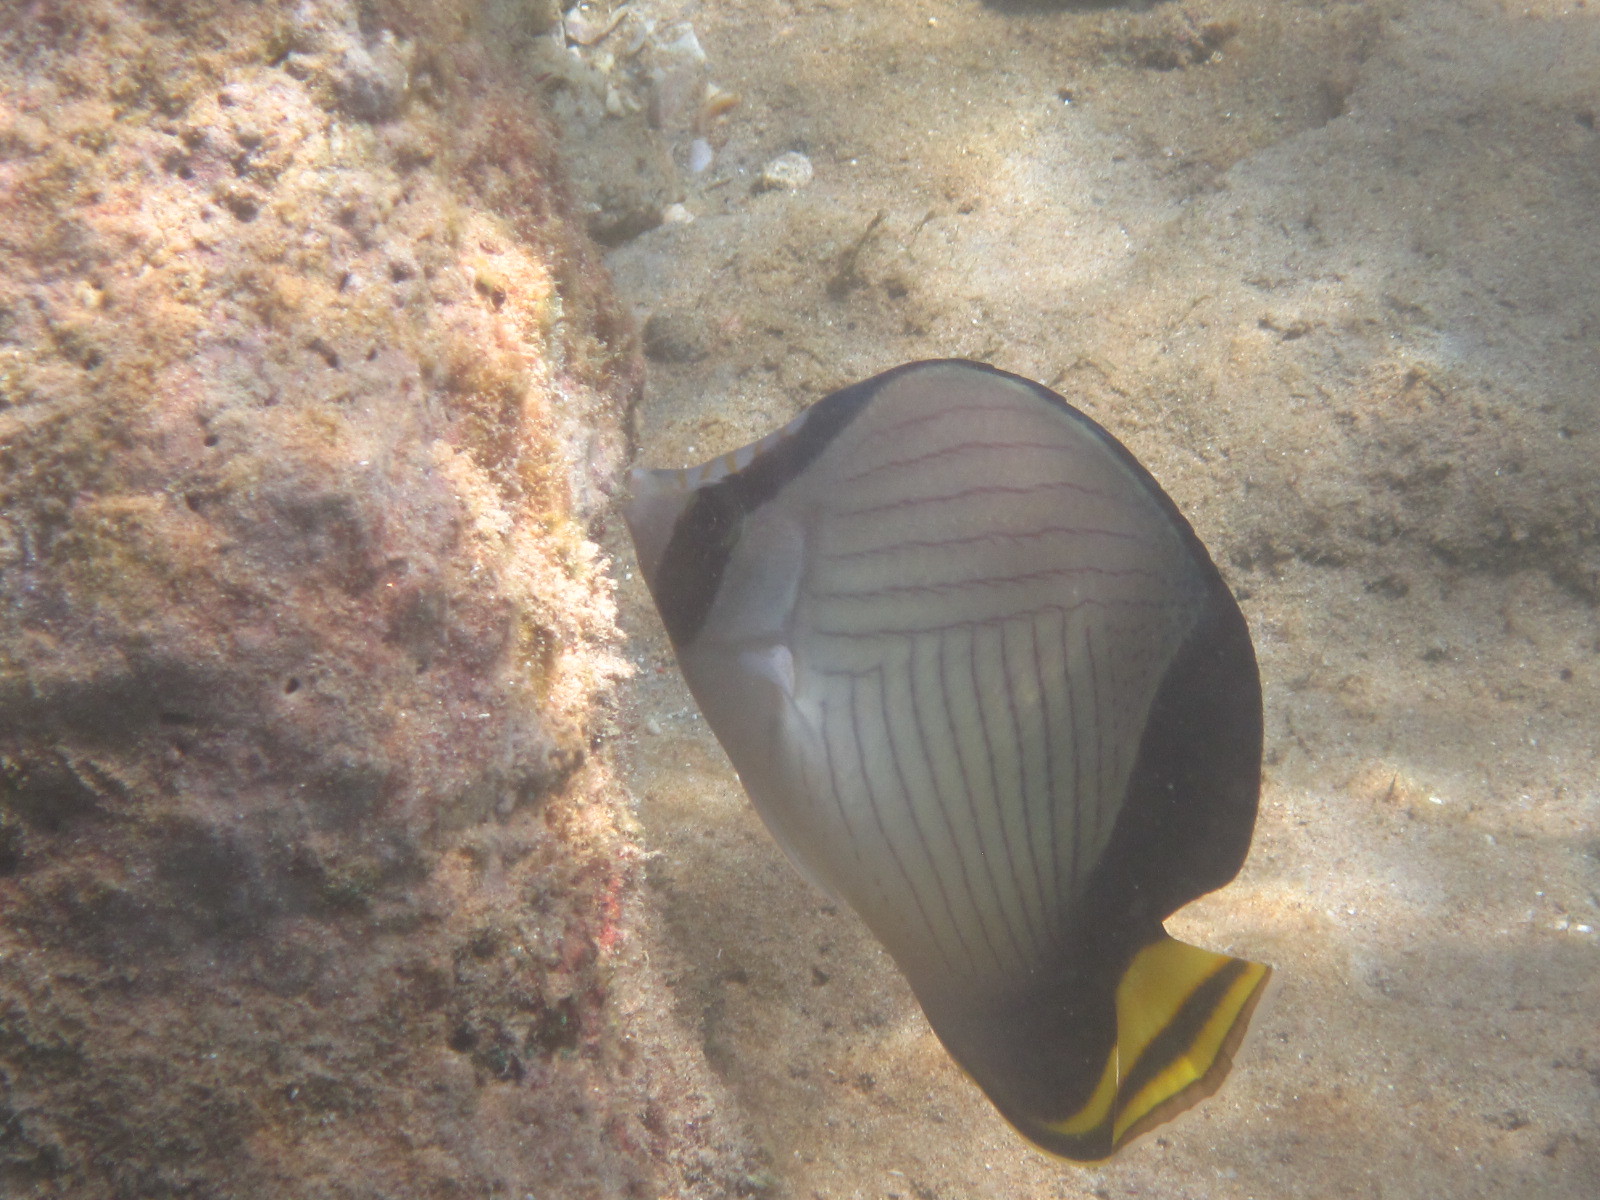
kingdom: Animalia
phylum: Chordata
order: Perciformes
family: Chaetodontidae
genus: Chaetodon
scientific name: Chaetodon decussatus
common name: Indian vagabond butterflyfish
